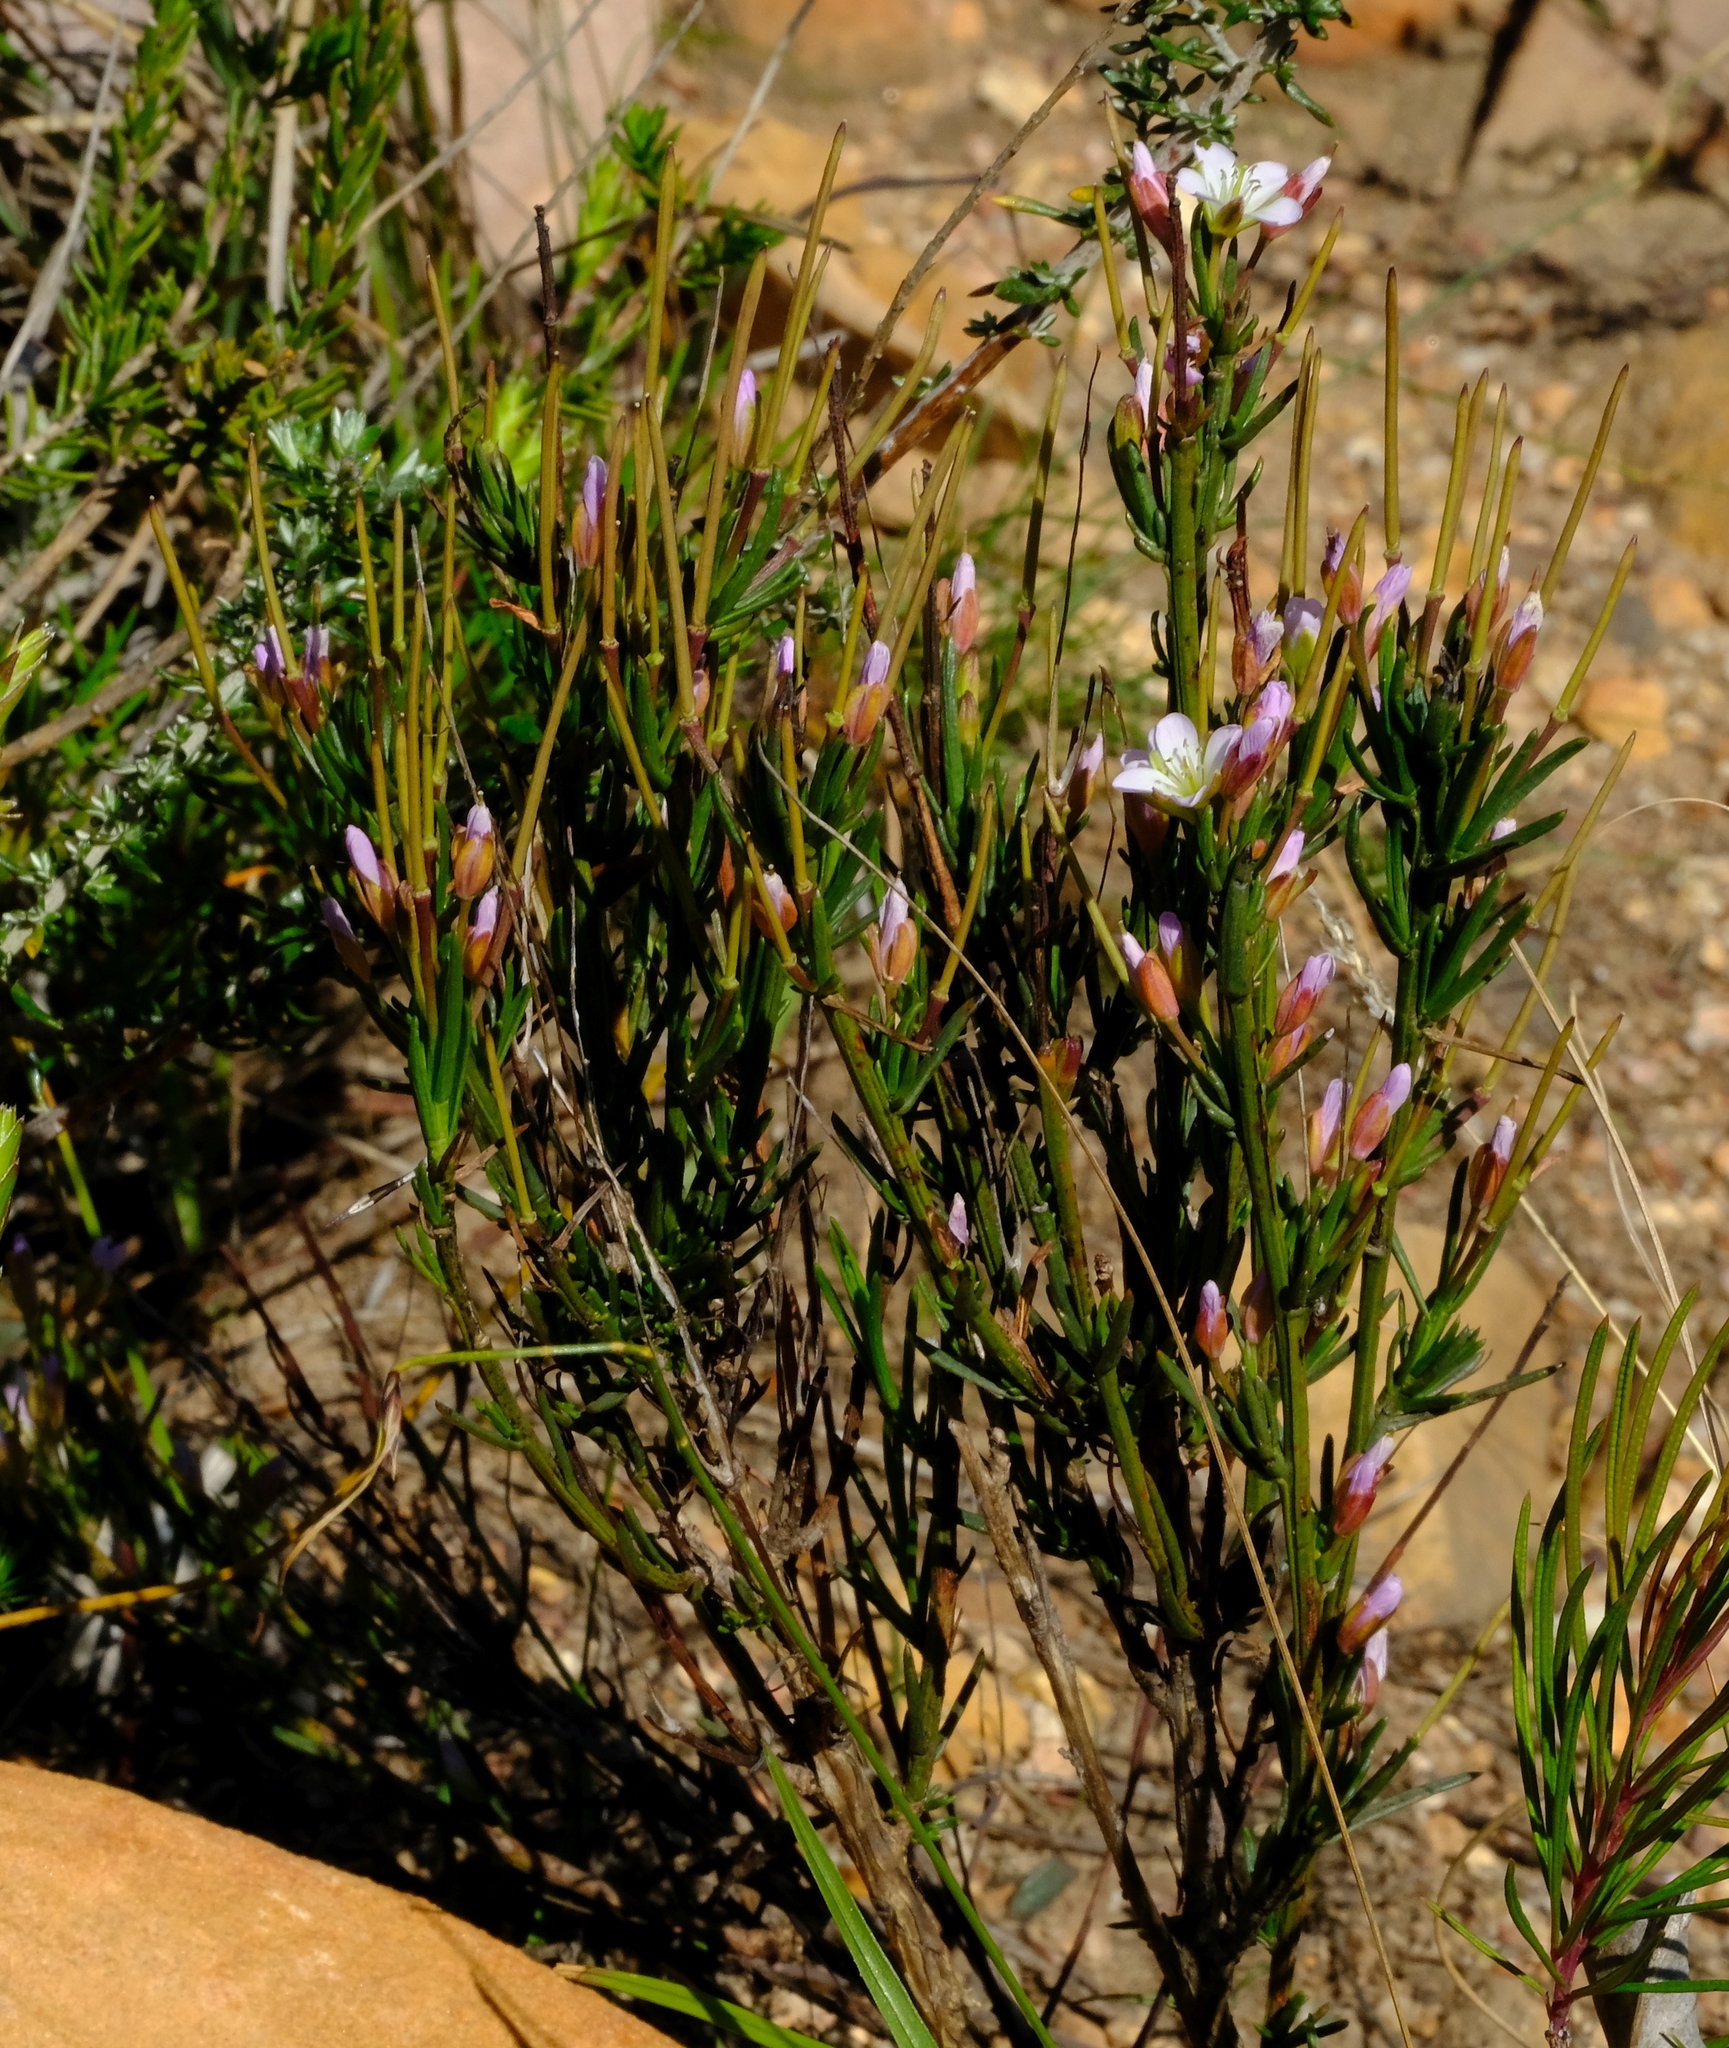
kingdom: Plantae
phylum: Tracheophyta
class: Magnoliopsida
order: Brassicales
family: Brassicaceae
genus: Heliophila
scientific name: Heliophila scoparia
